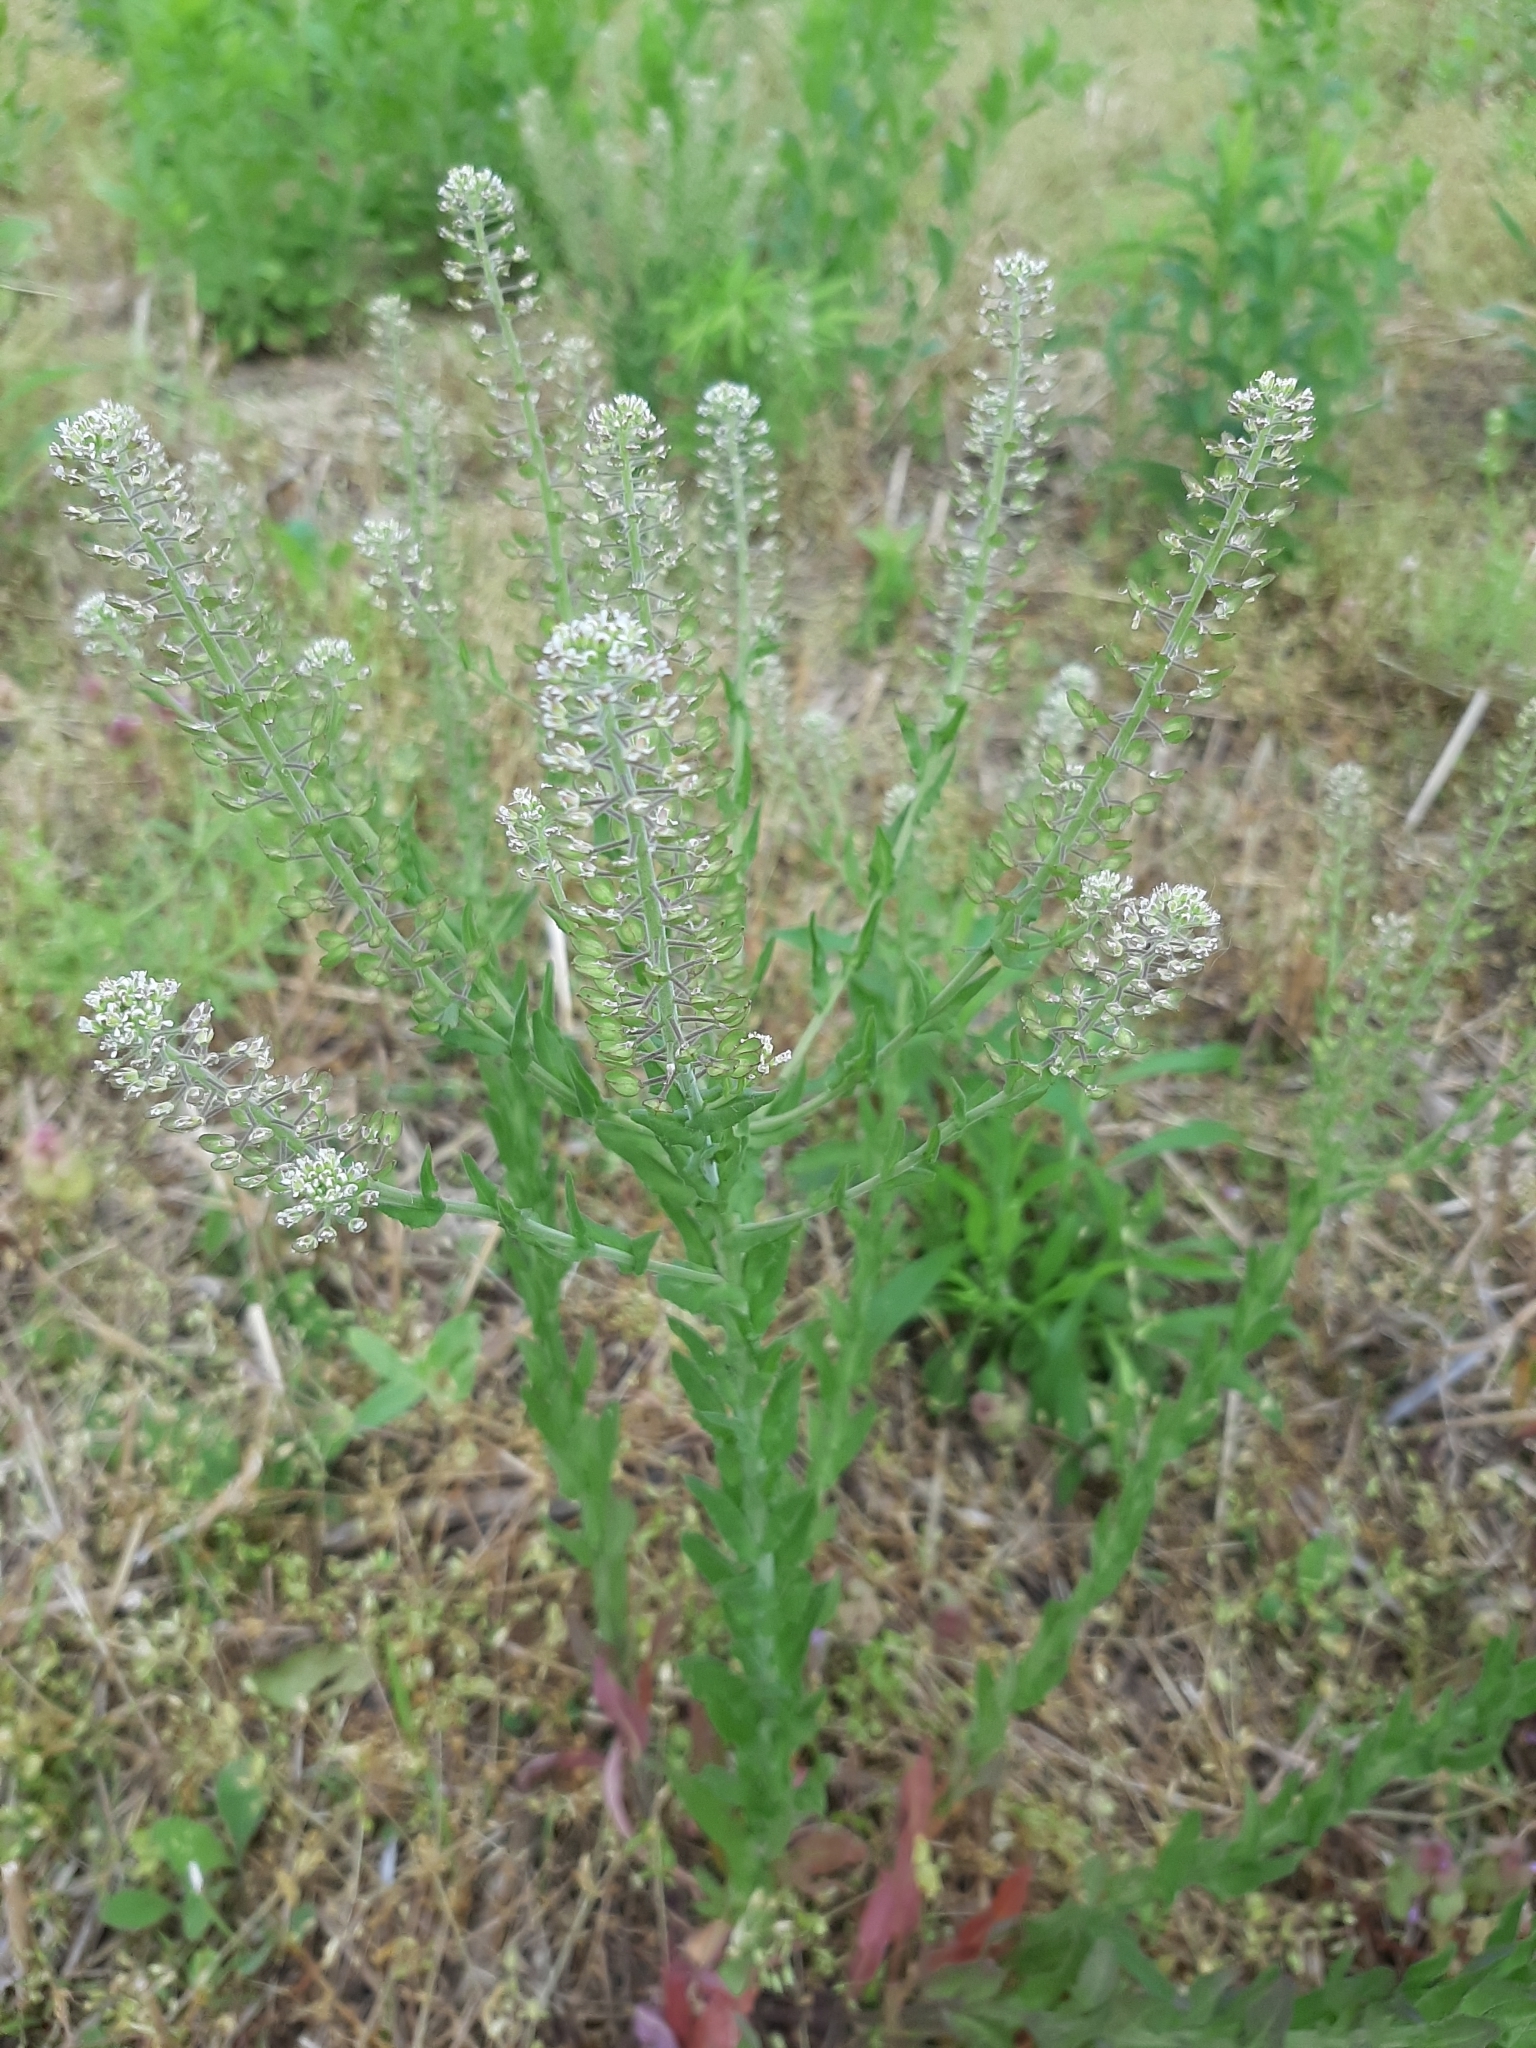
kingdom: Plantae
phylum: Tracheophyta
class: Magnoliopsida
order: Brassicales
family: Brassicaceae
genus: Lepidium
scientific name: Lepidium campestre
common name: Field pepperwort
